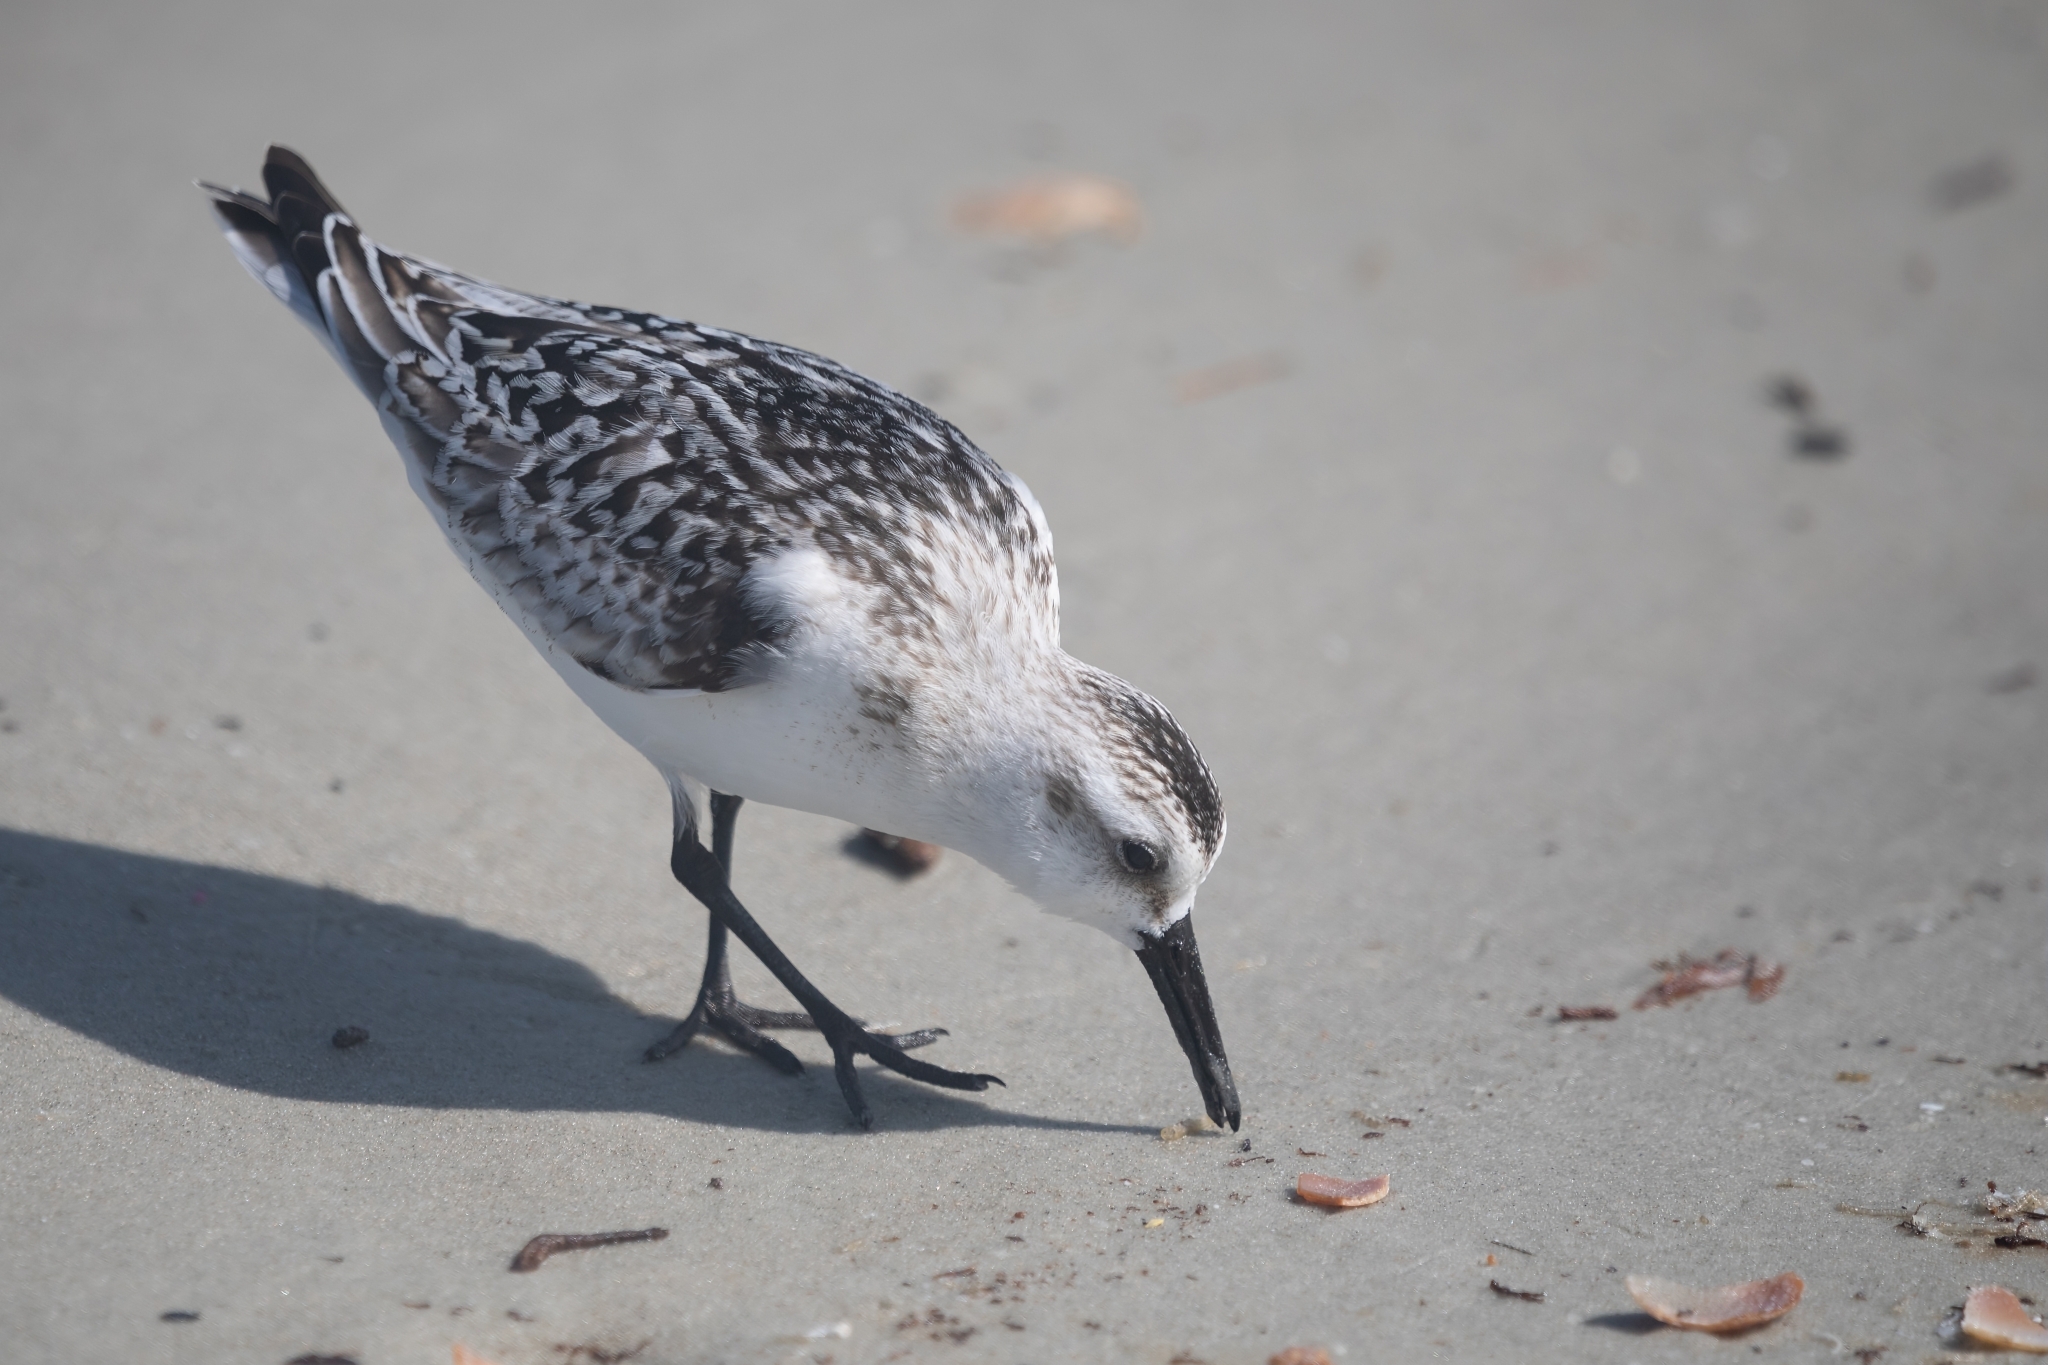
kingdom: Animalia
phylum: Chordata
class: Aves
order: Charadriiformes
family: Scolopacidae
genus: Calidris
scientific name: Calidris alba
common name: Sanderling
